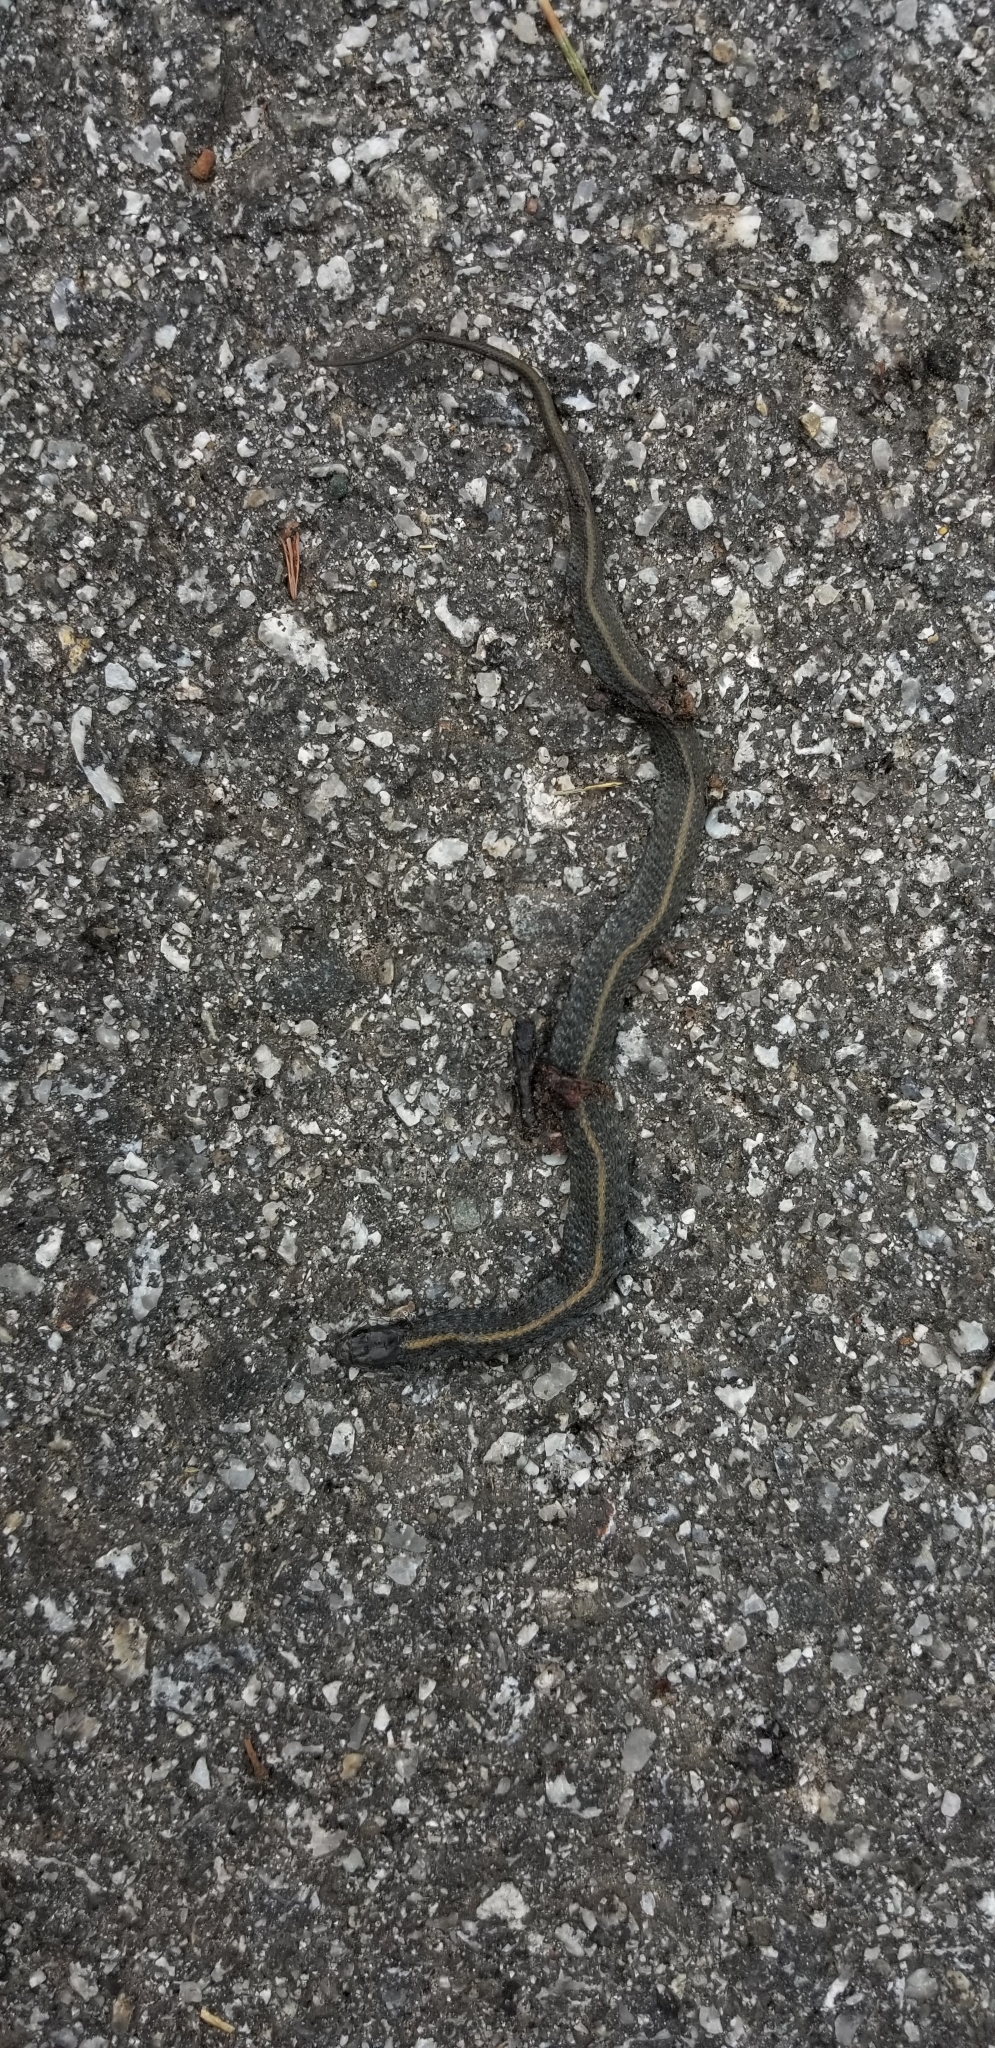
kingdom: Animalia
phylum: Chordata
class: Squamata
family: Colubridae
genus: Thamnophis
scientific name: Thamnophis atratus
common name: Pacific coast aquatic garter snake
